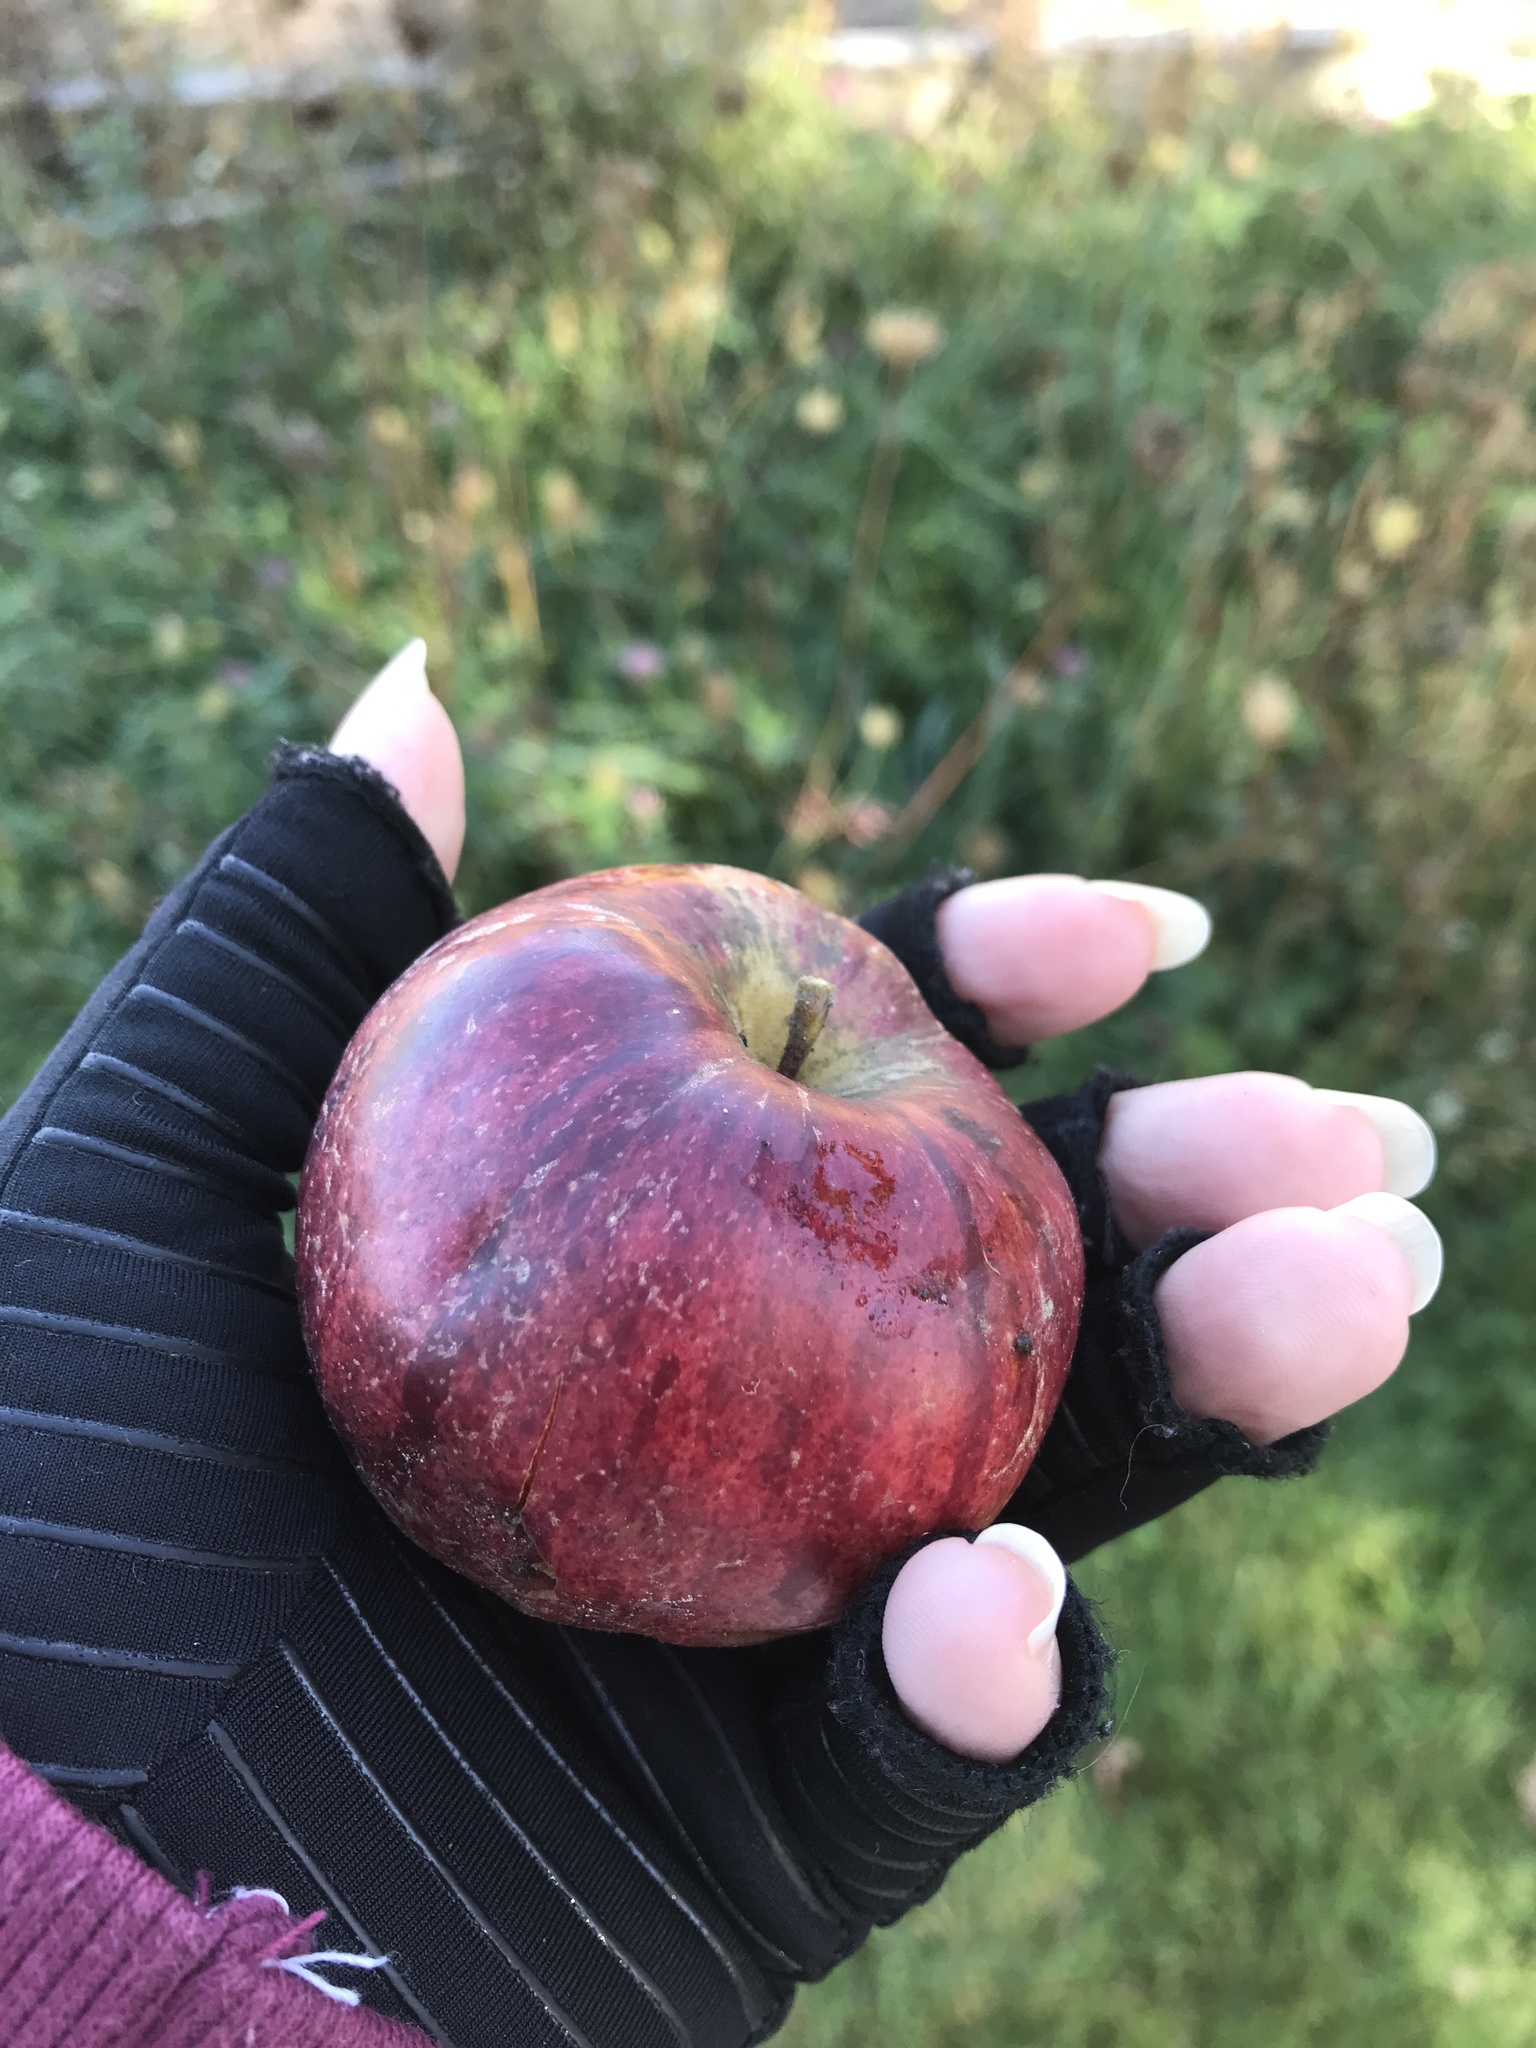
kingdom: Plantae
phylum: Tracheophyta
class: Magnoliopsida
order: Rosales
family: Rosaceae
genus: Malus
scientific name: Malus domestica
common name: Apple
